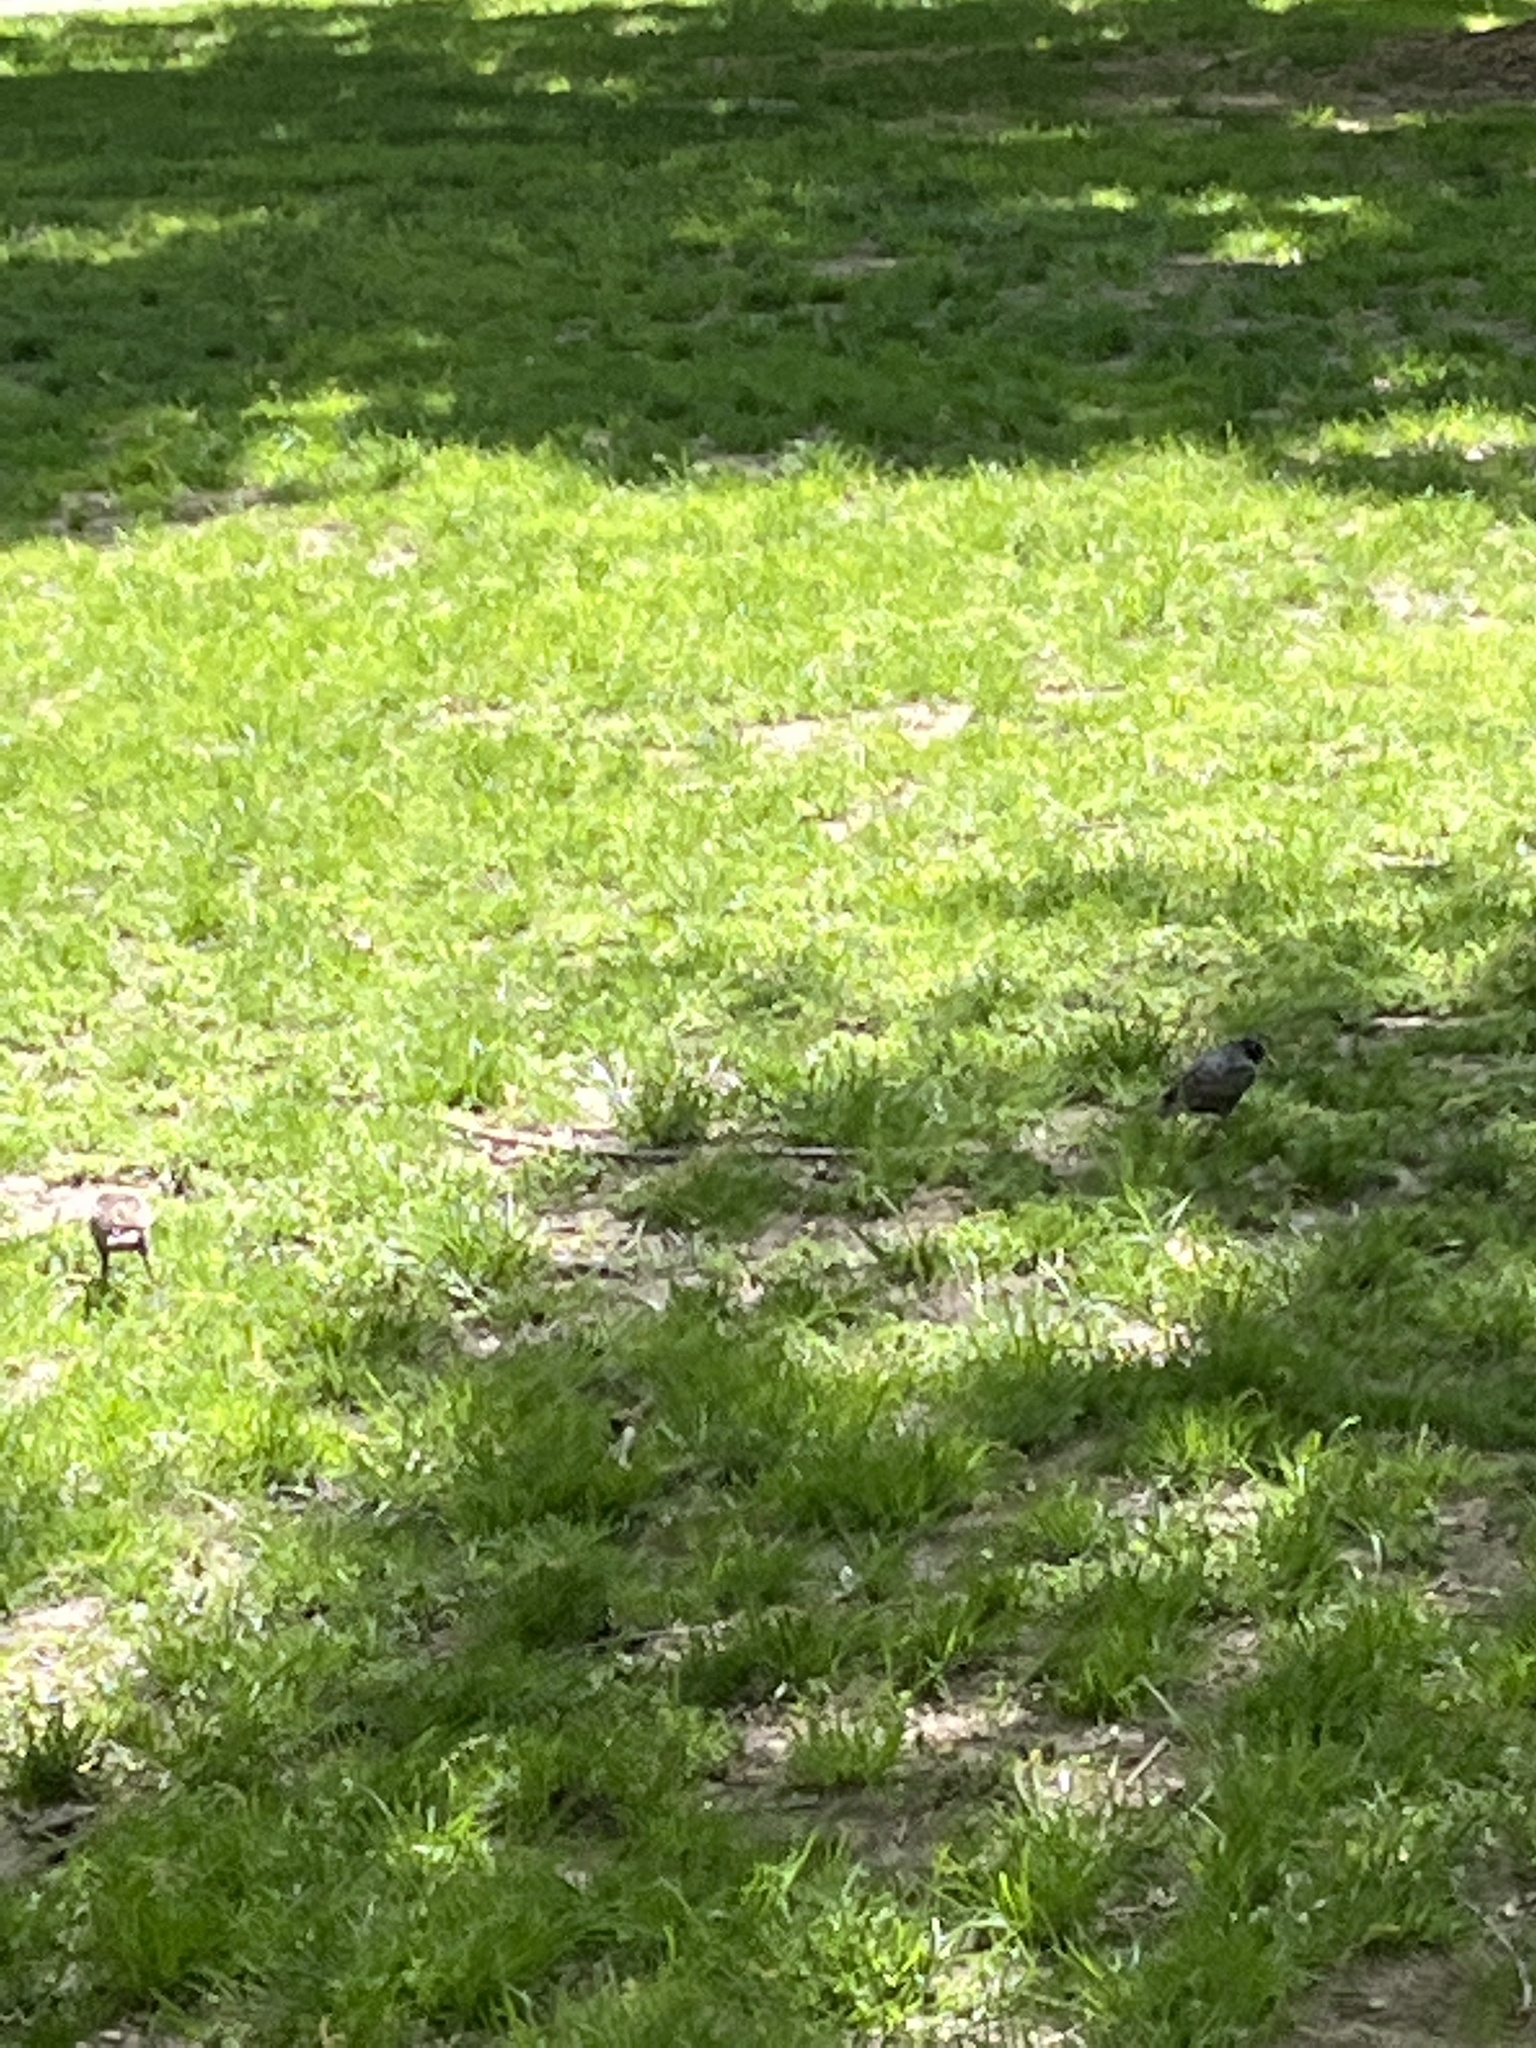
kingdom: Animalia
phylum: Chordata
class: Aves
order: Passeriformes
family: Sturnidae
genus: Sturnus
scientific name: Sturnus vulgaris
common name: Common starling
